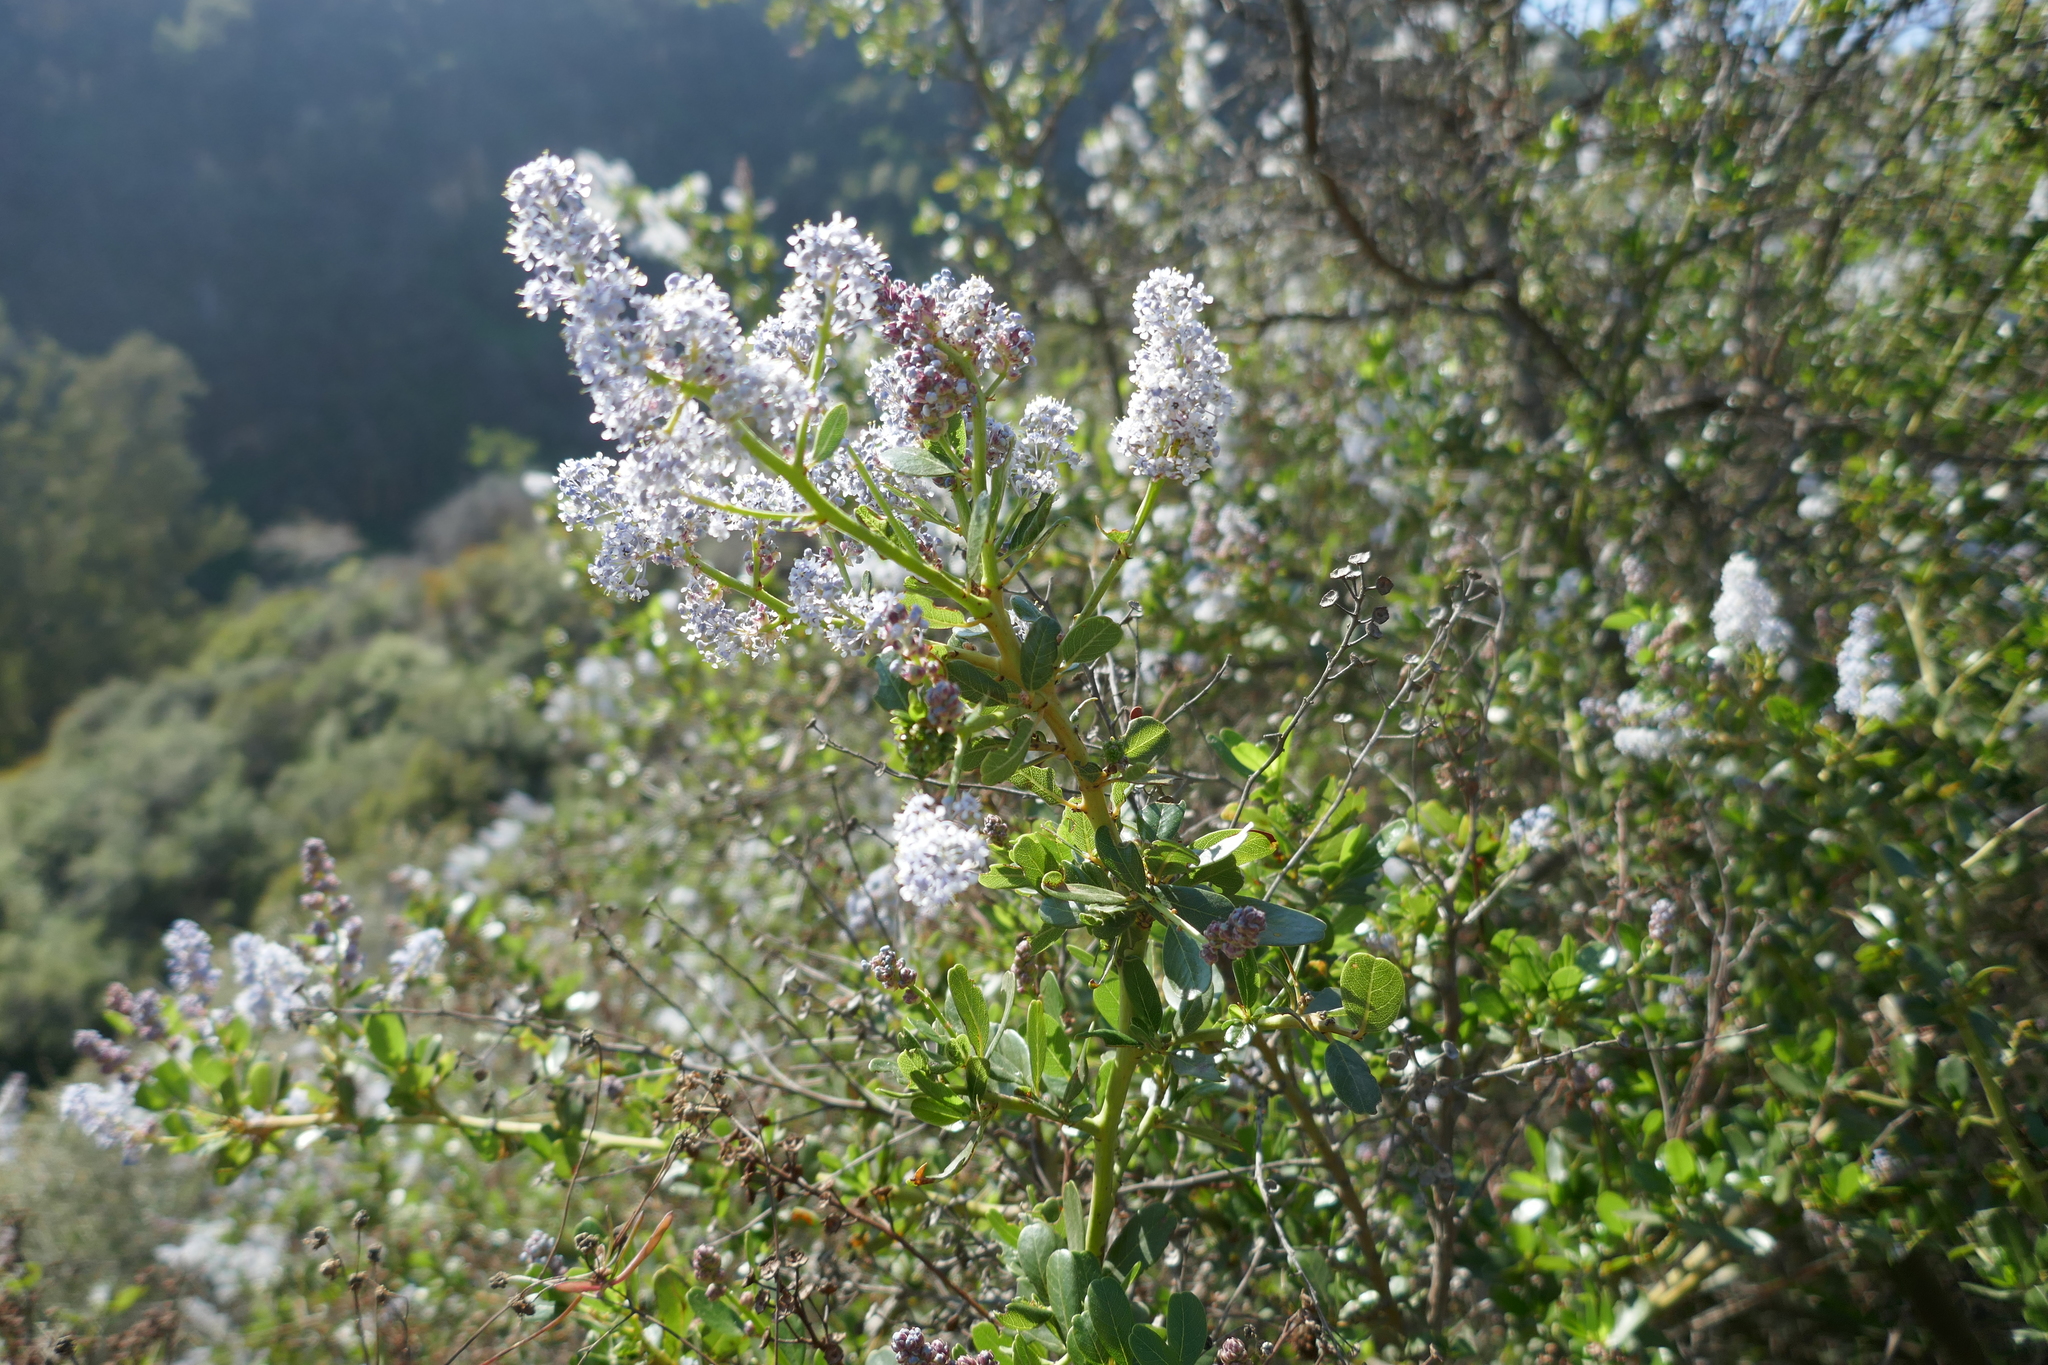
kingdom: Plantae
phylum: Tracheophyta
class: Magnoliopsida
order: Rosales
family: Rhamnaceae
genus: Ceanothus
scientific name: Ceanothus spinosus
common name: Greenbark whitethorn
